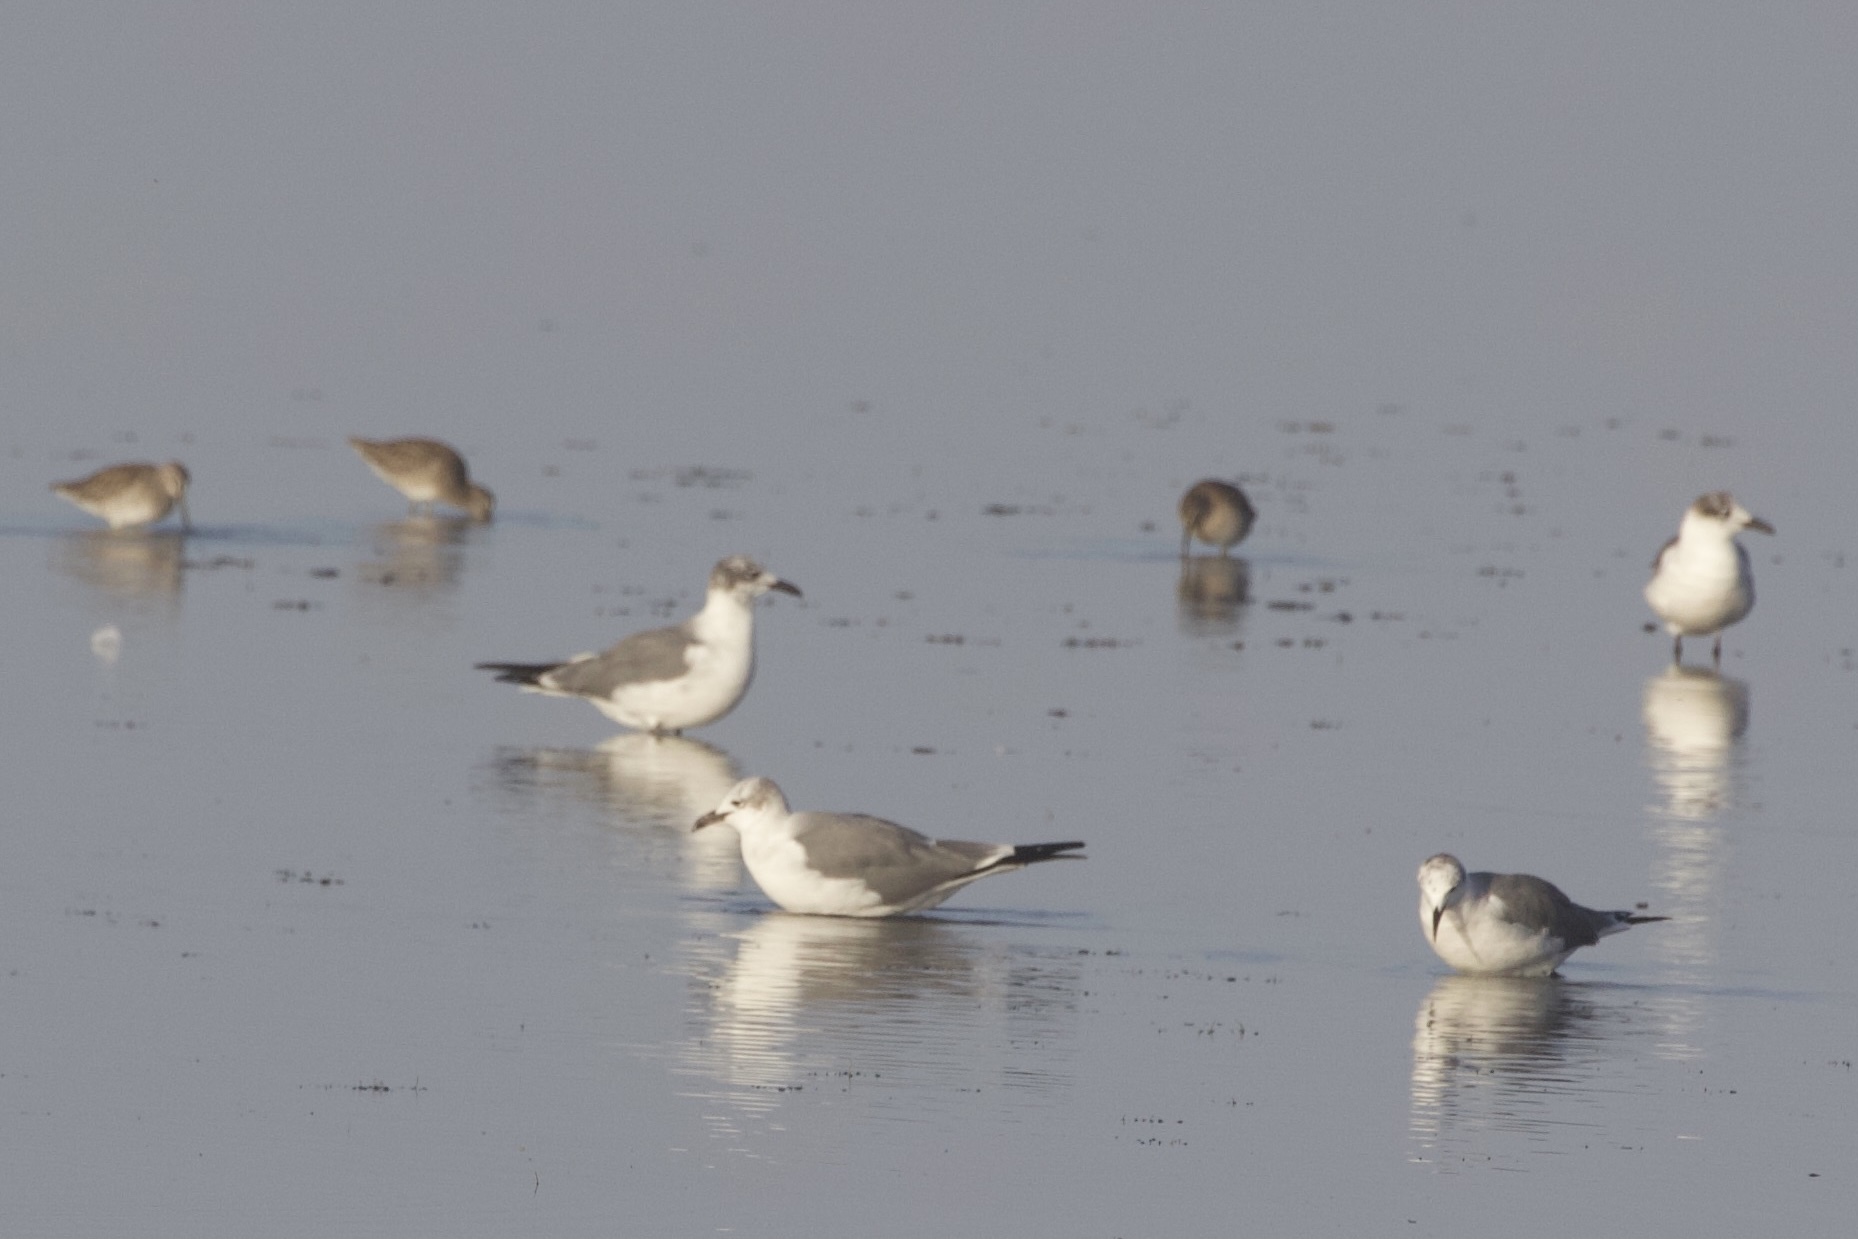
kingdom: Animalia
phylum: Chordata
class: Aves
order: Charadriiformes
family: Laridae
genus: Leucophaeus
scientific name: Leucophaeus atricilla
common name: Laughing gull
